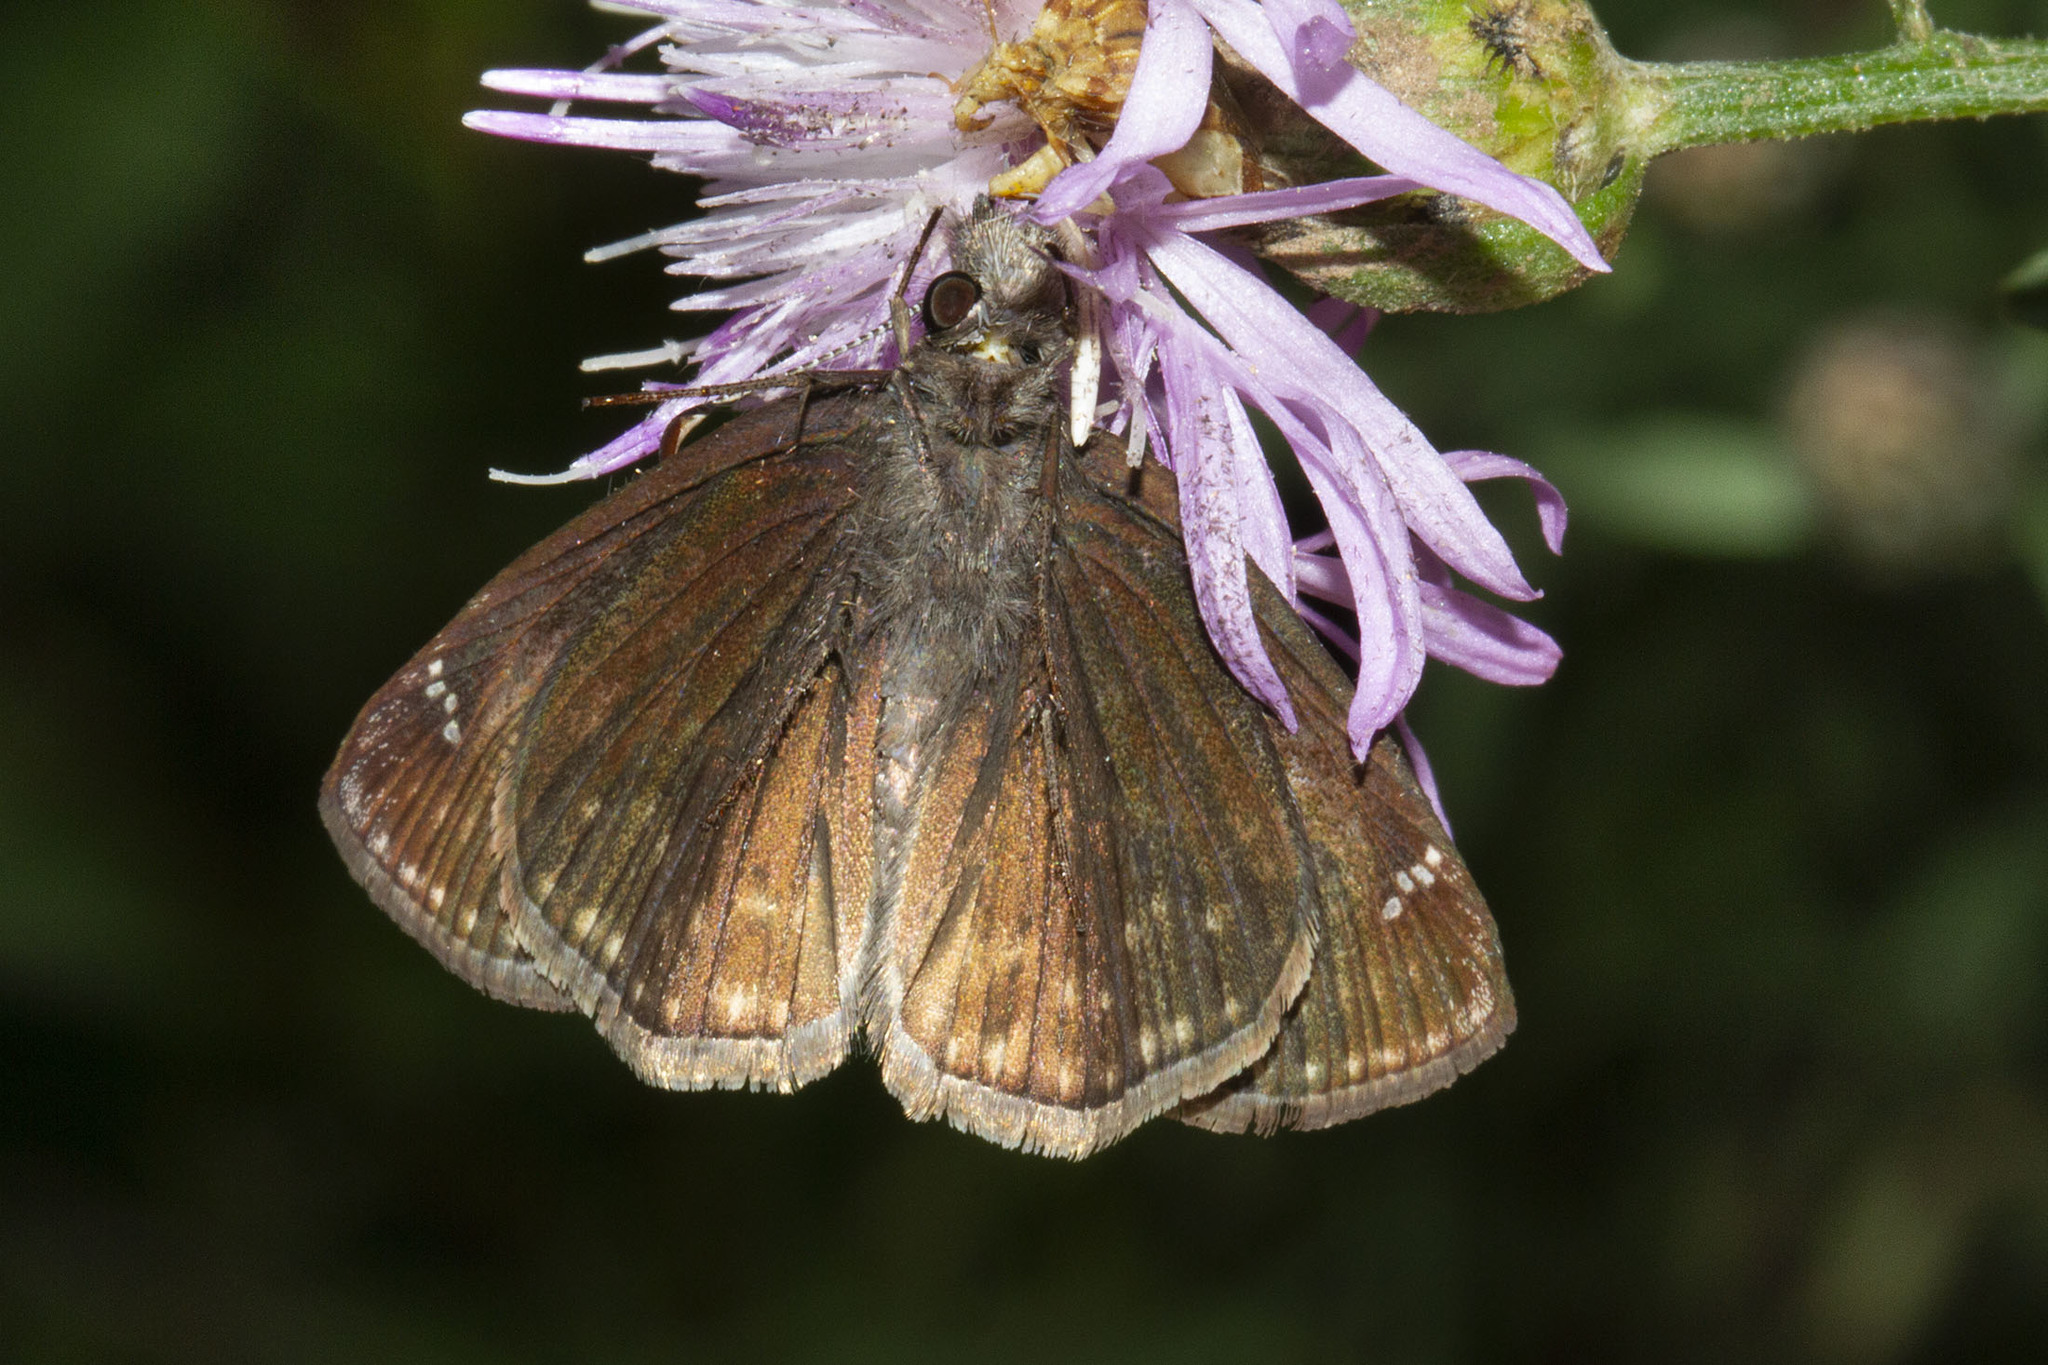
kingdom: Animalia
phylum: Arthropoda
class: Insecta
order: Lepidoptera
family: Hesperiidae
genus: Erynnis
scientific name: Erynnis baptisiae
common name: Wild indigo duskywing
